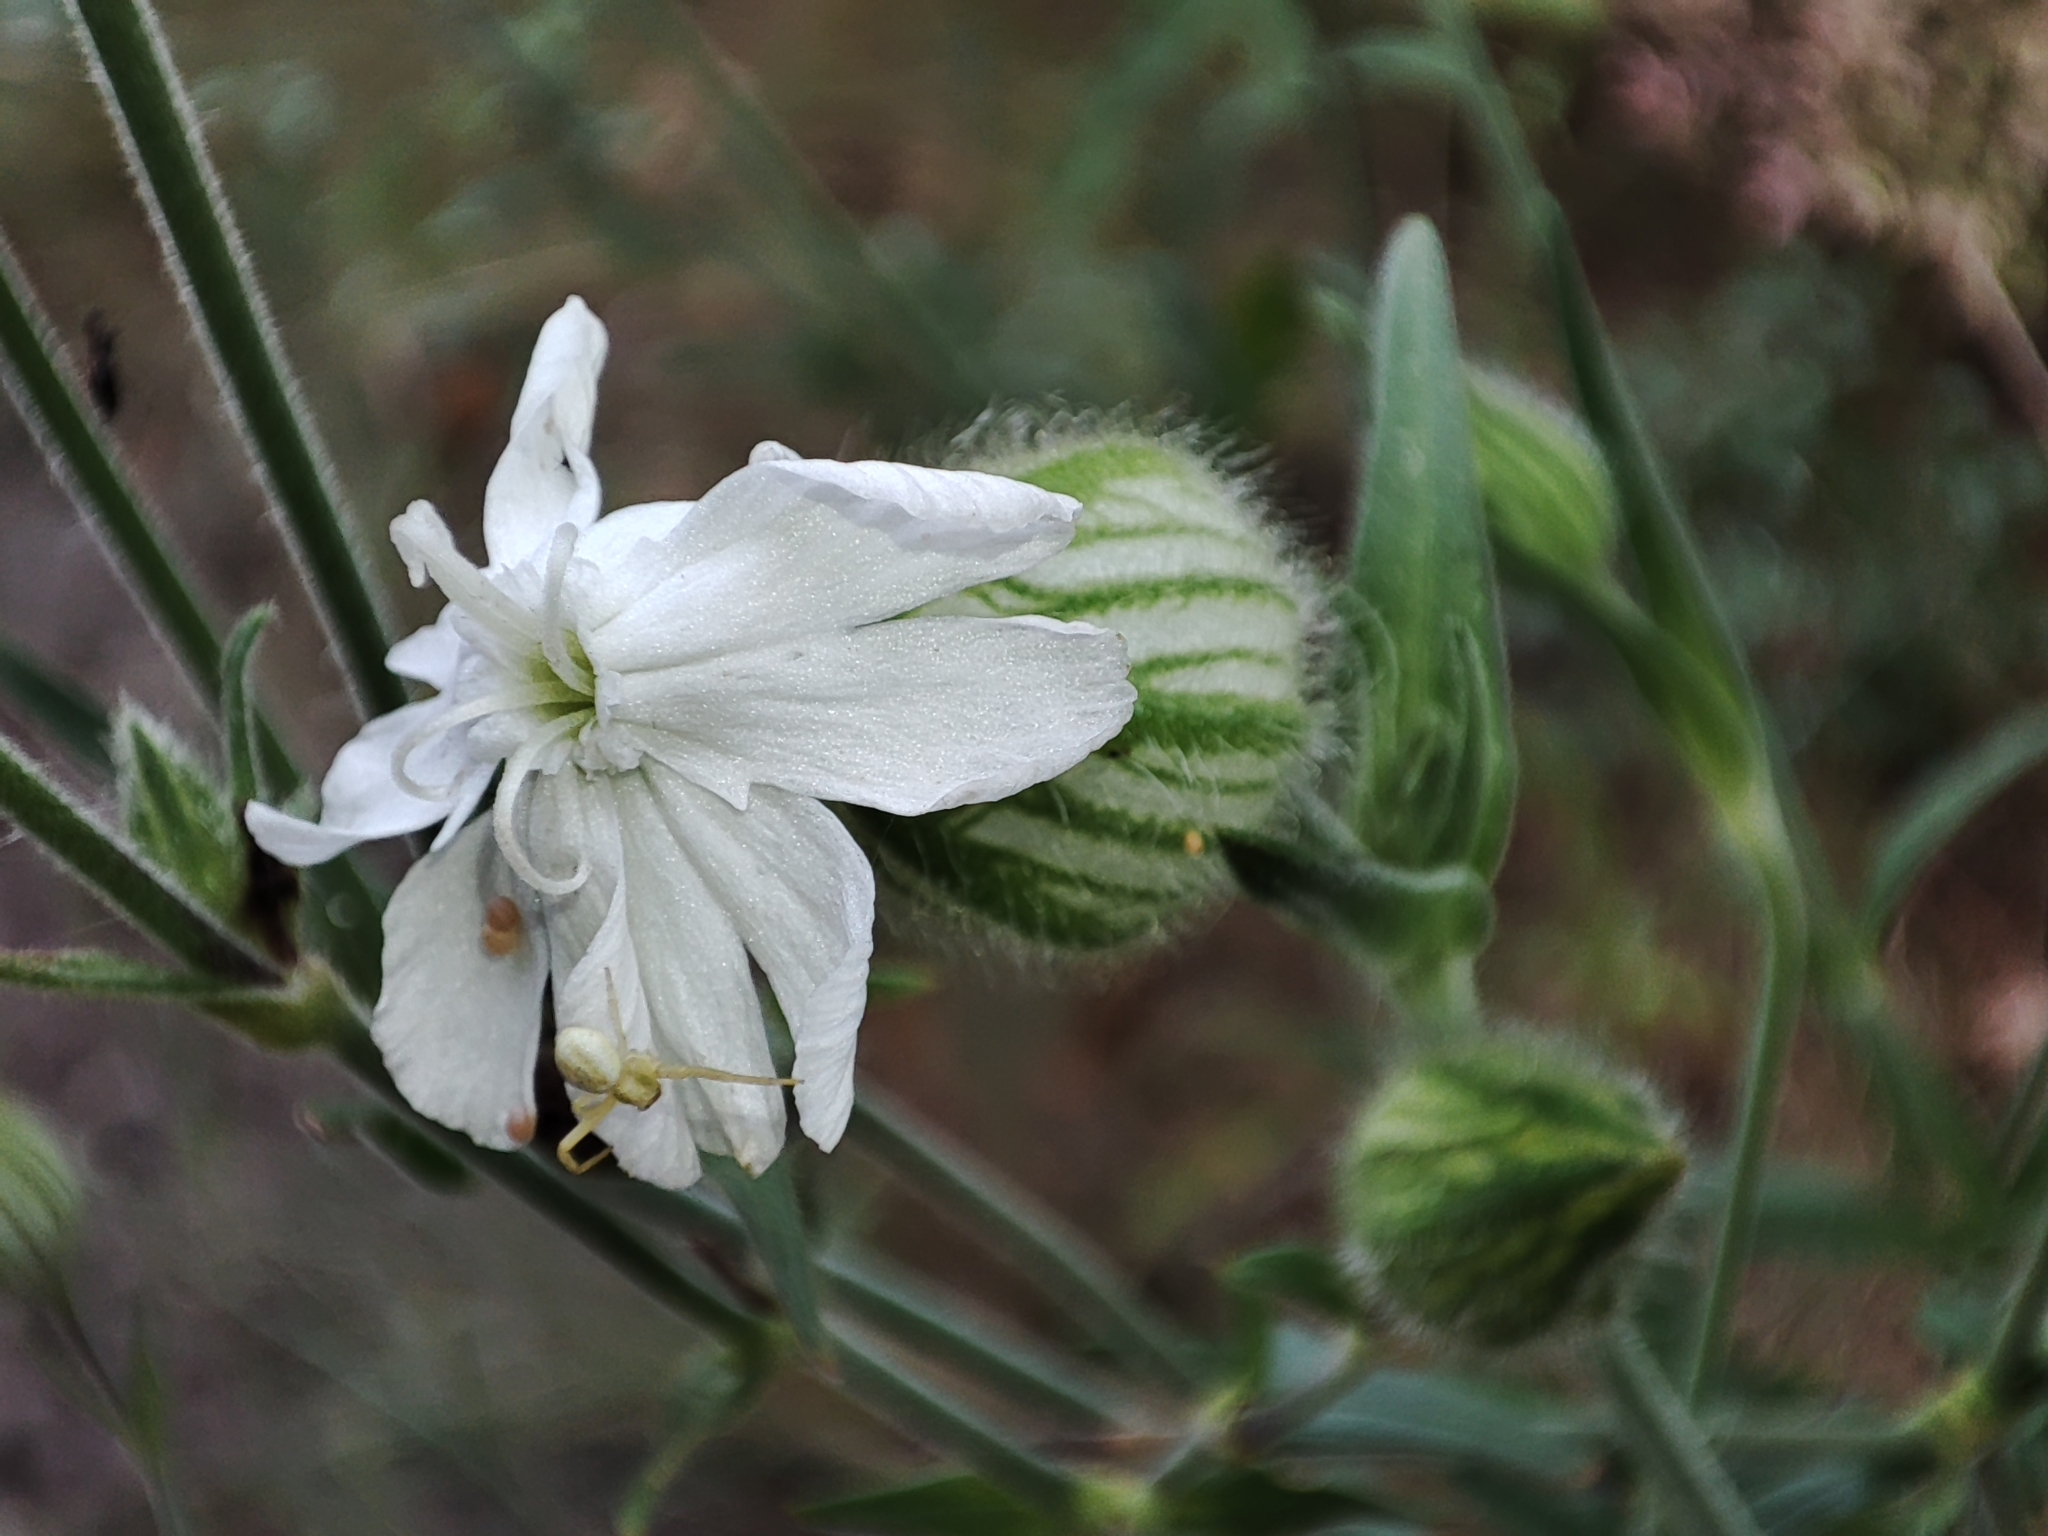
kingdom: Animalia
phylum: Arthropoda
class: Arachnida
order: Araneae
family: Thomisidae
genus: Misumena
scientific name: Misumena vatia
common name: Goldenrod crab spider
